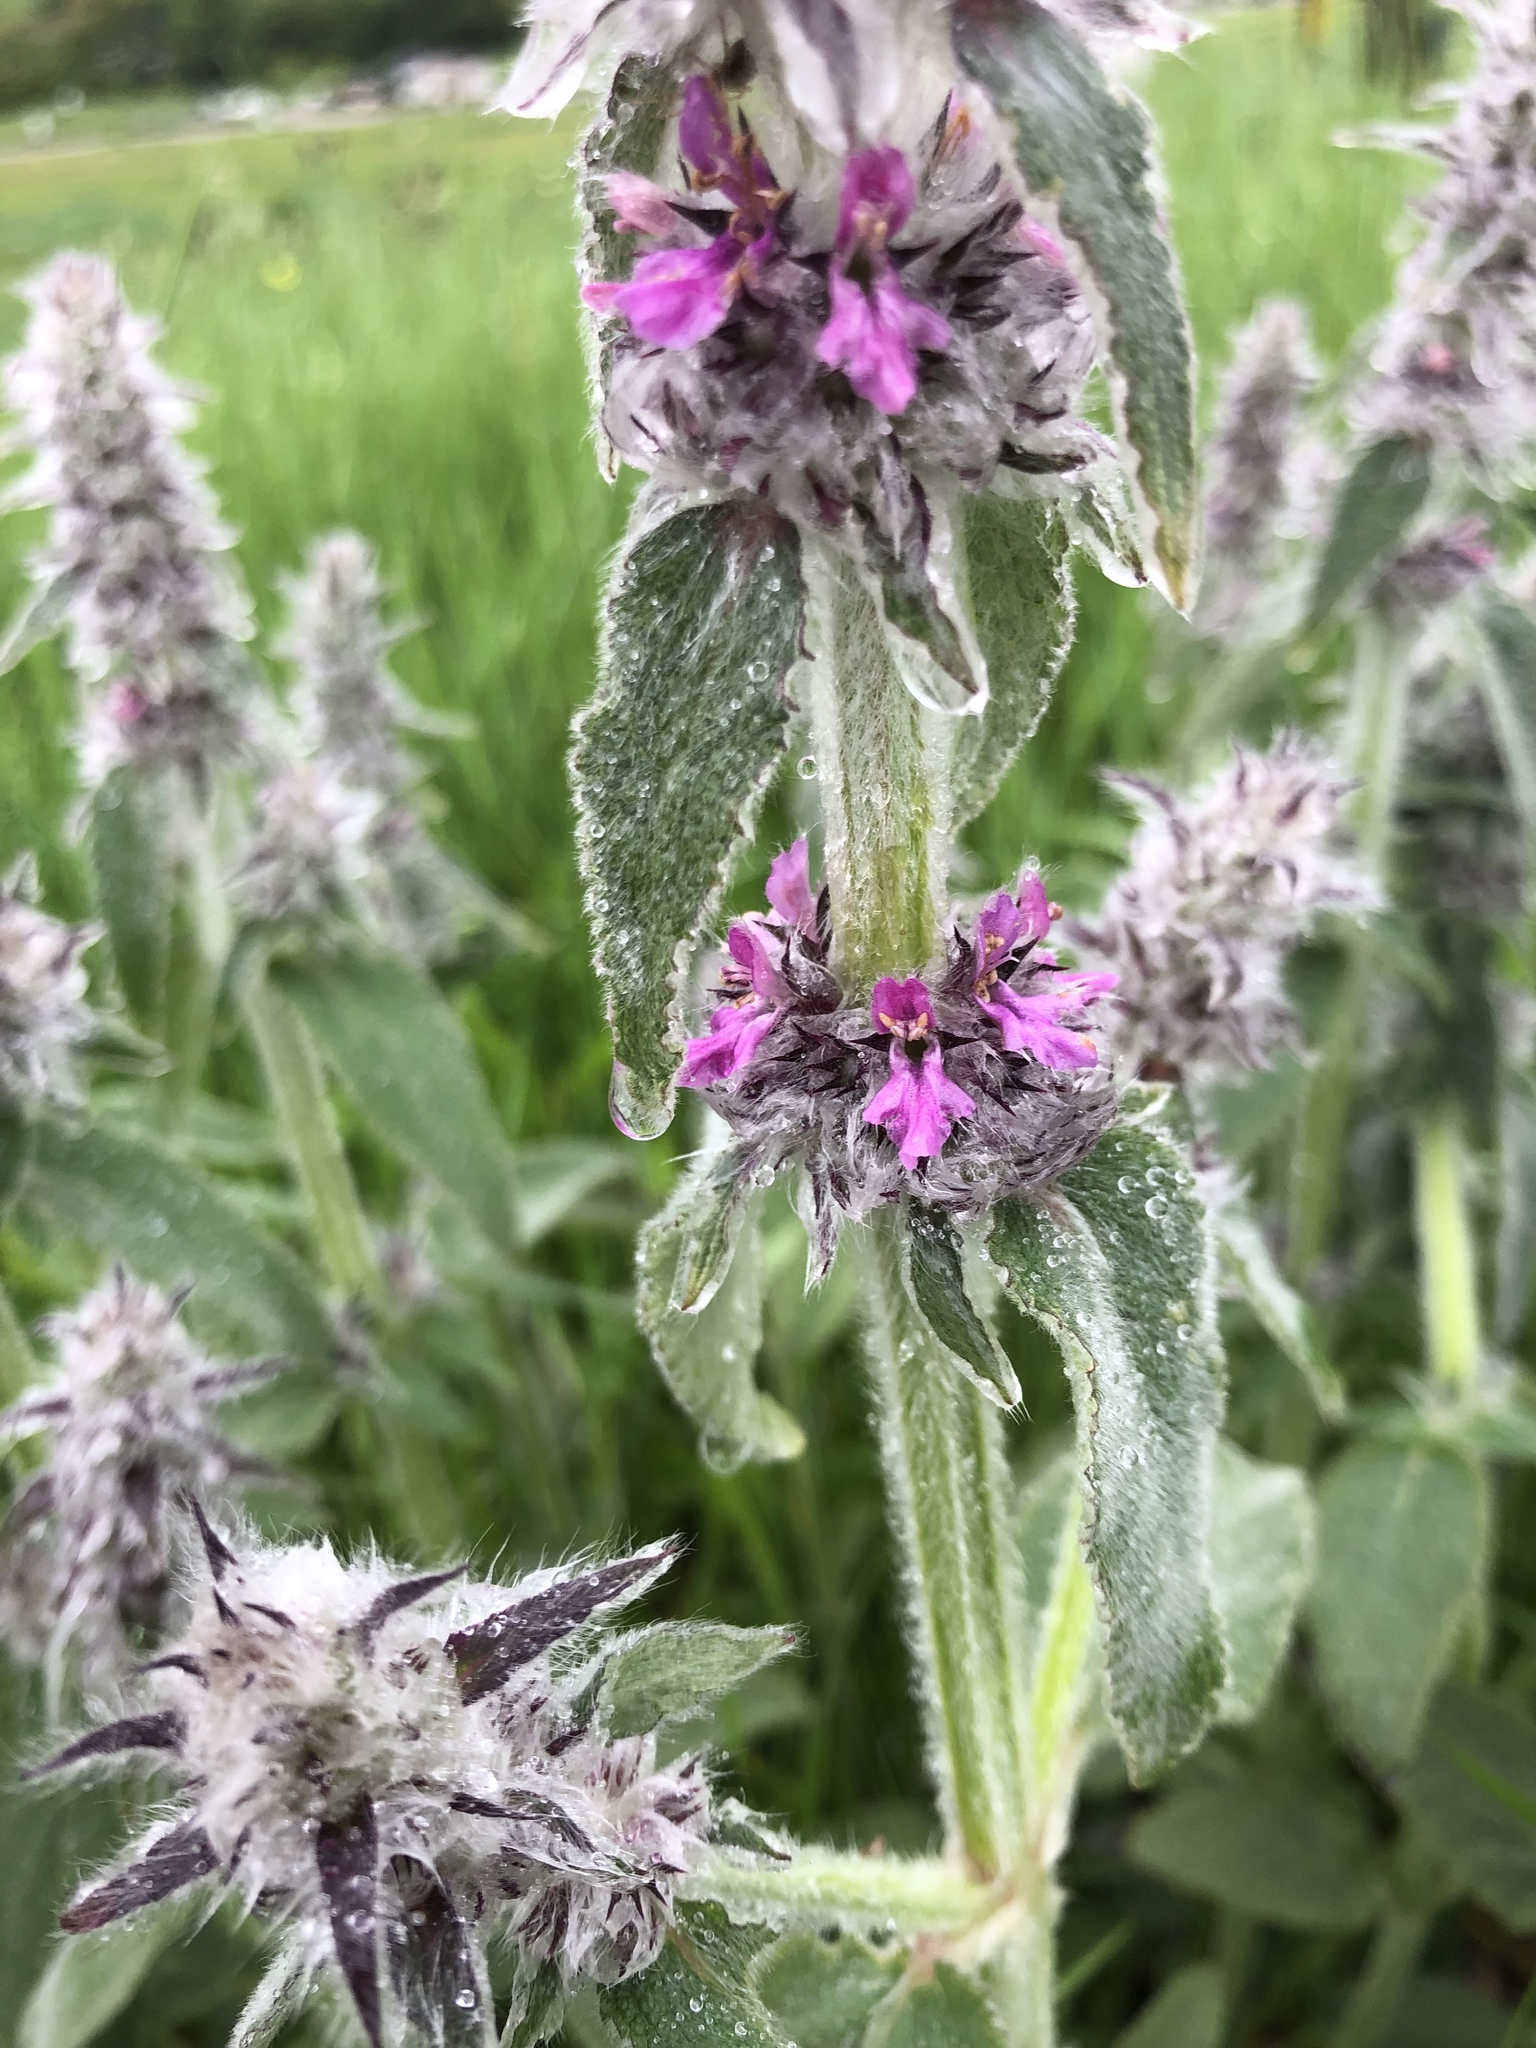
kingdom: Plantae
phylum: Tracheophyta
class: Magnoliopsida
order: Lamiales
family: Lamiaceae
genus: Stachys
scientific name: Stachys germanica
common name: Downy woundwort
